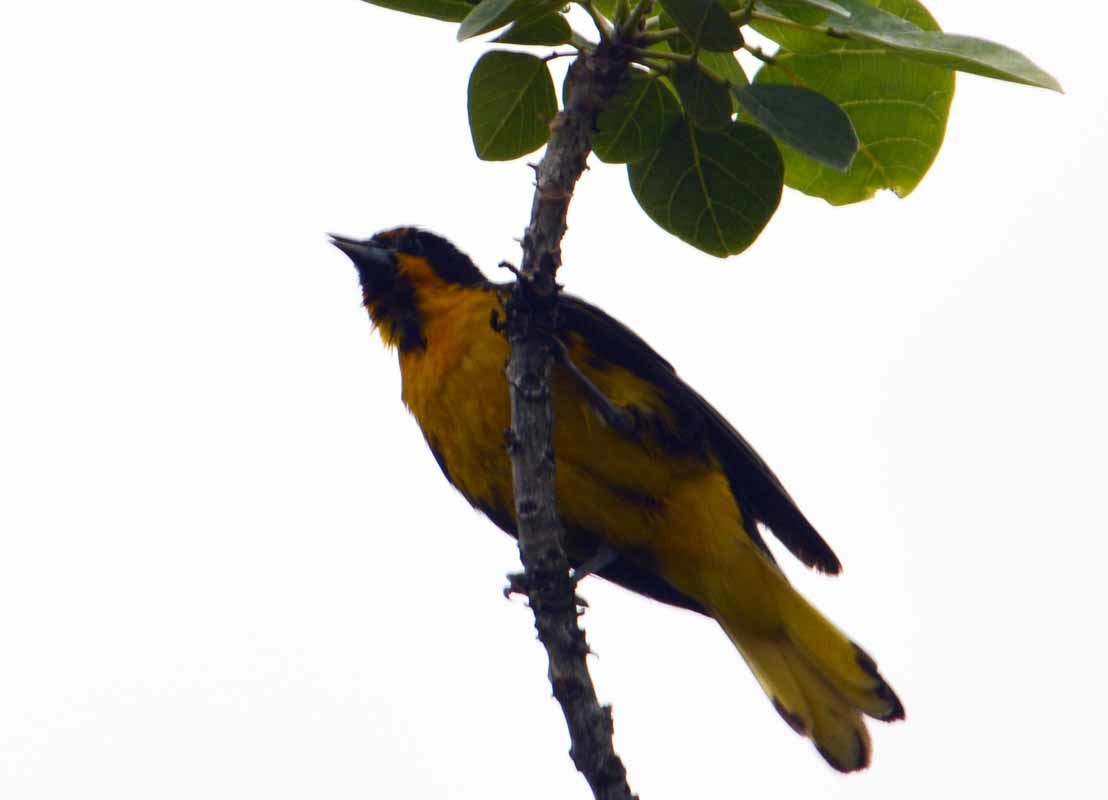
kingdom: Animalia
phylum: Chordata
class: Aves
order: Passeriformes
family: Icteridae
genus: Icterus
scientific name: Icterus abeillei
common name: Black-backed oriole
